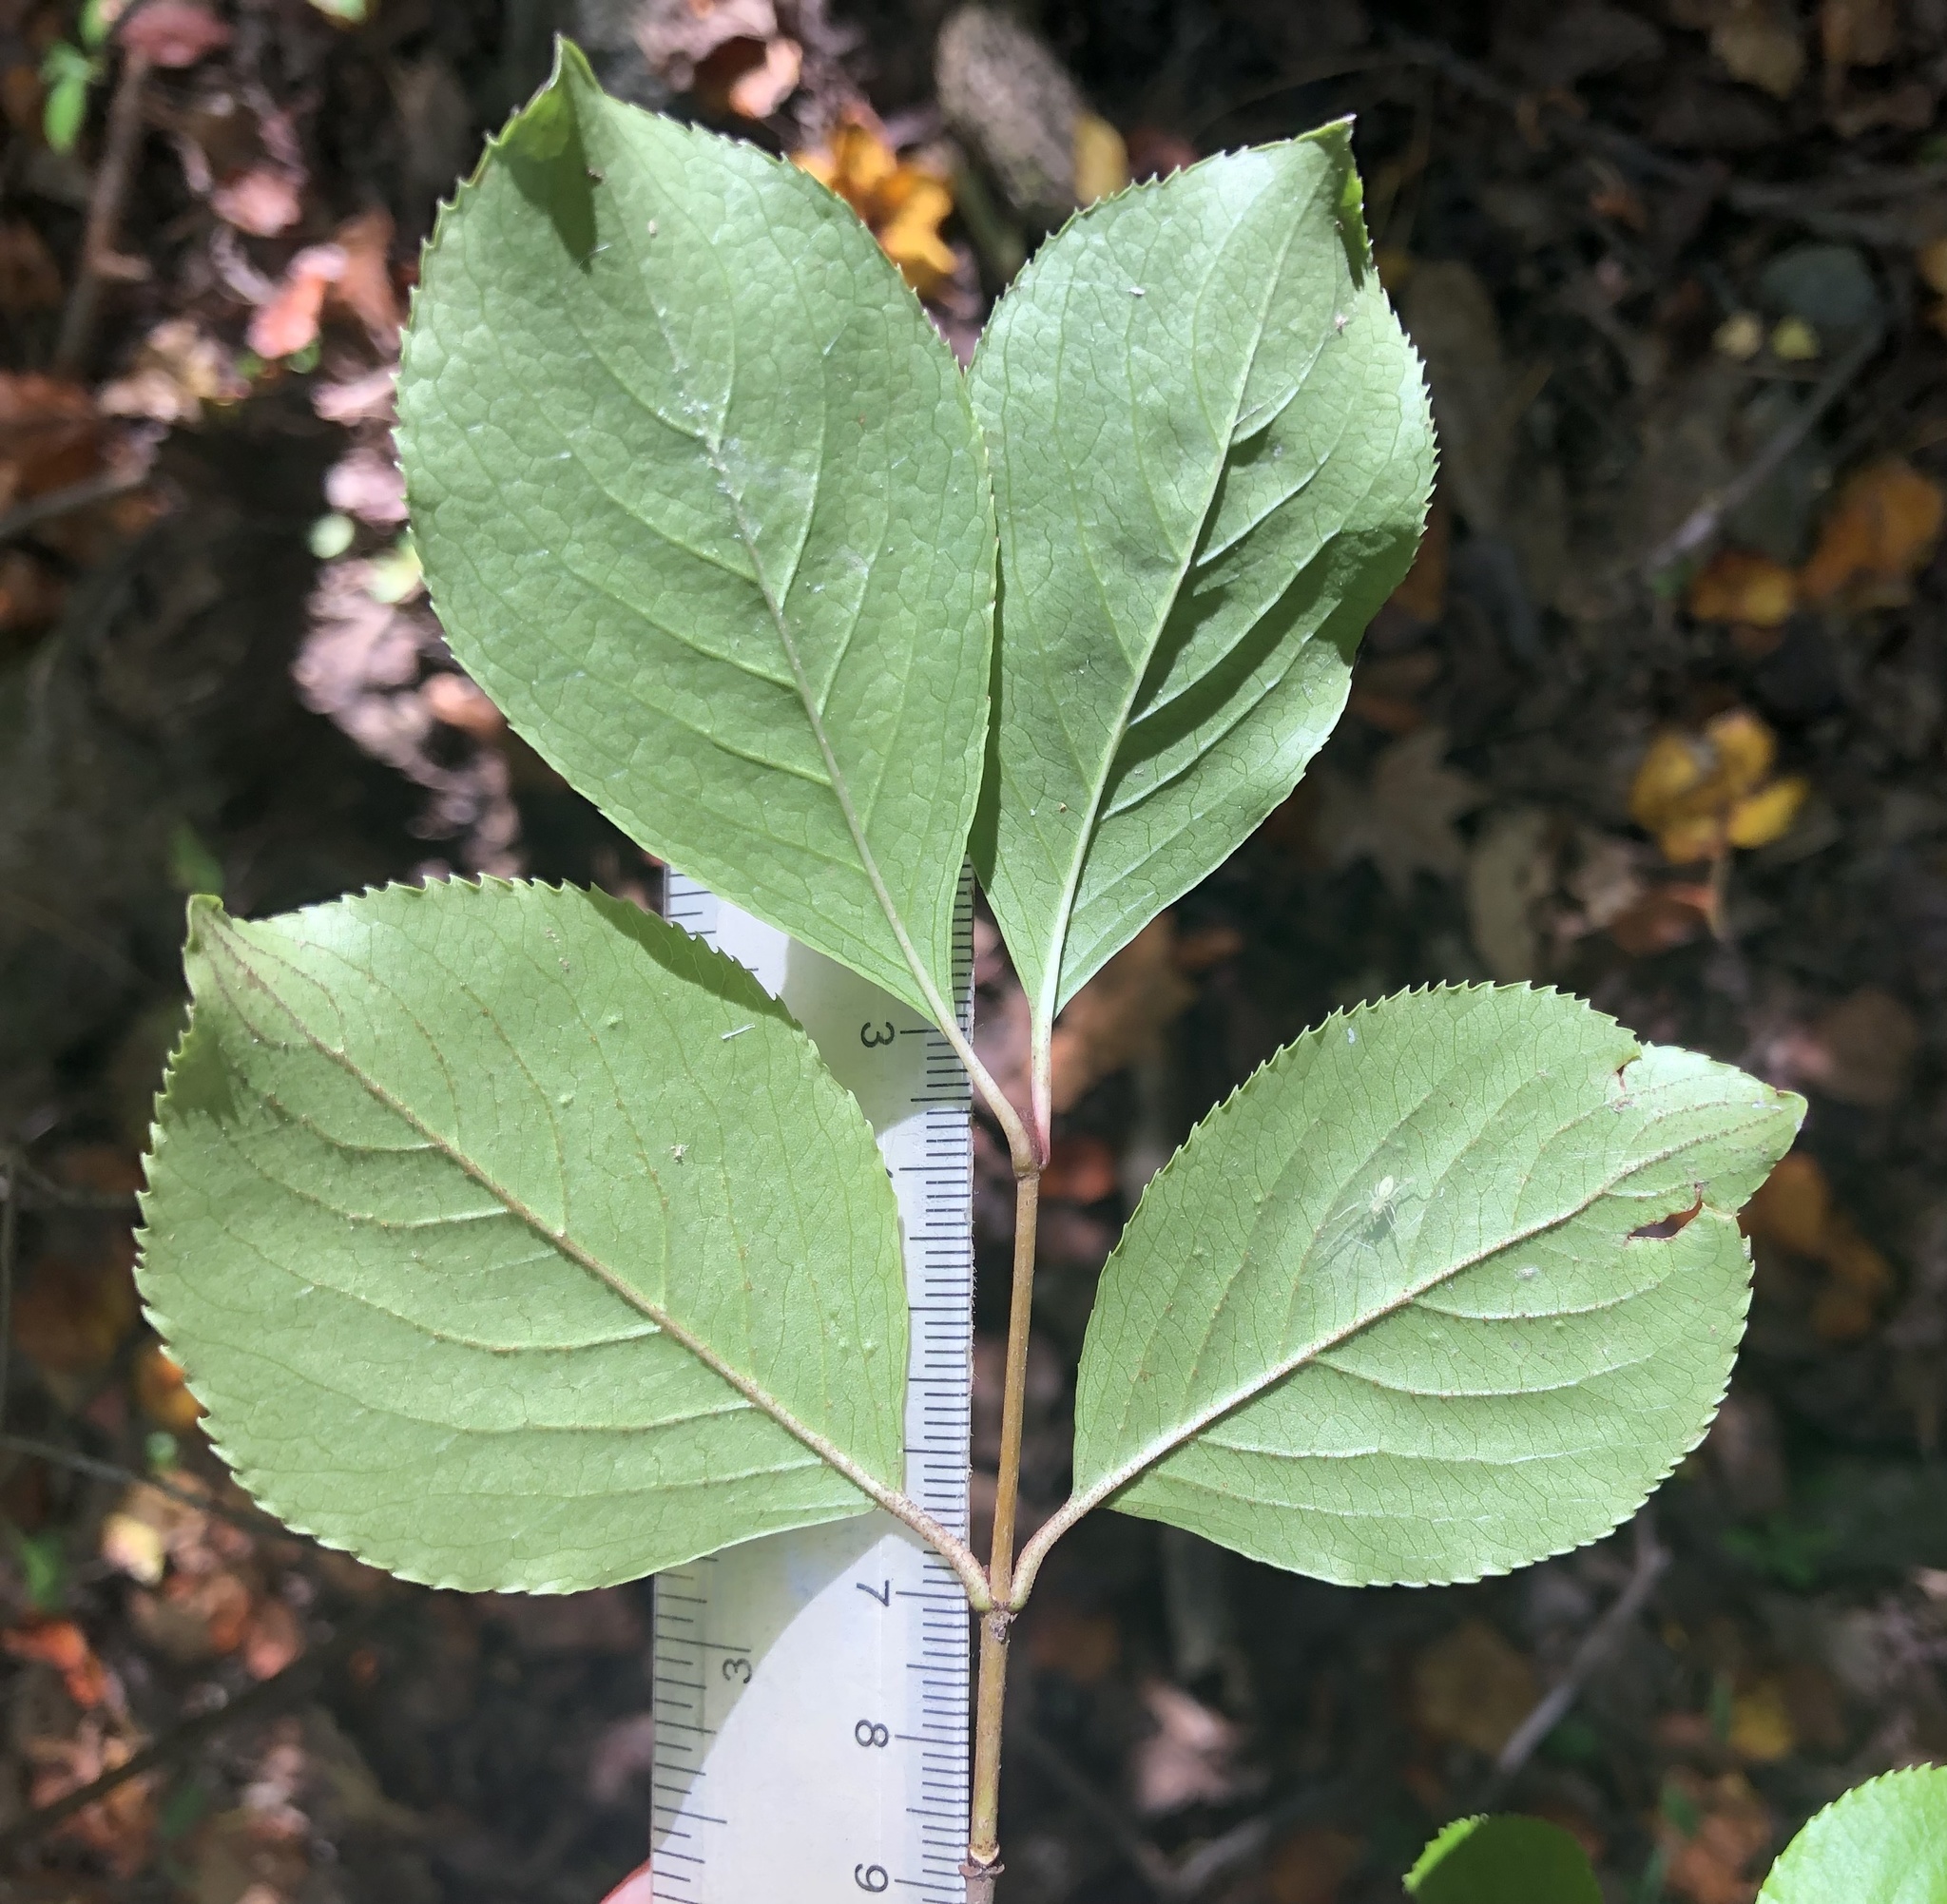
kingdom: Plantae
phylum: Tracheophyta
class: Magnoliopsida
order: Dipsacales
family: Viburnaceae
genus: Viburnum
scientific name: Viburnum rufidulum
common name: Blue haw
